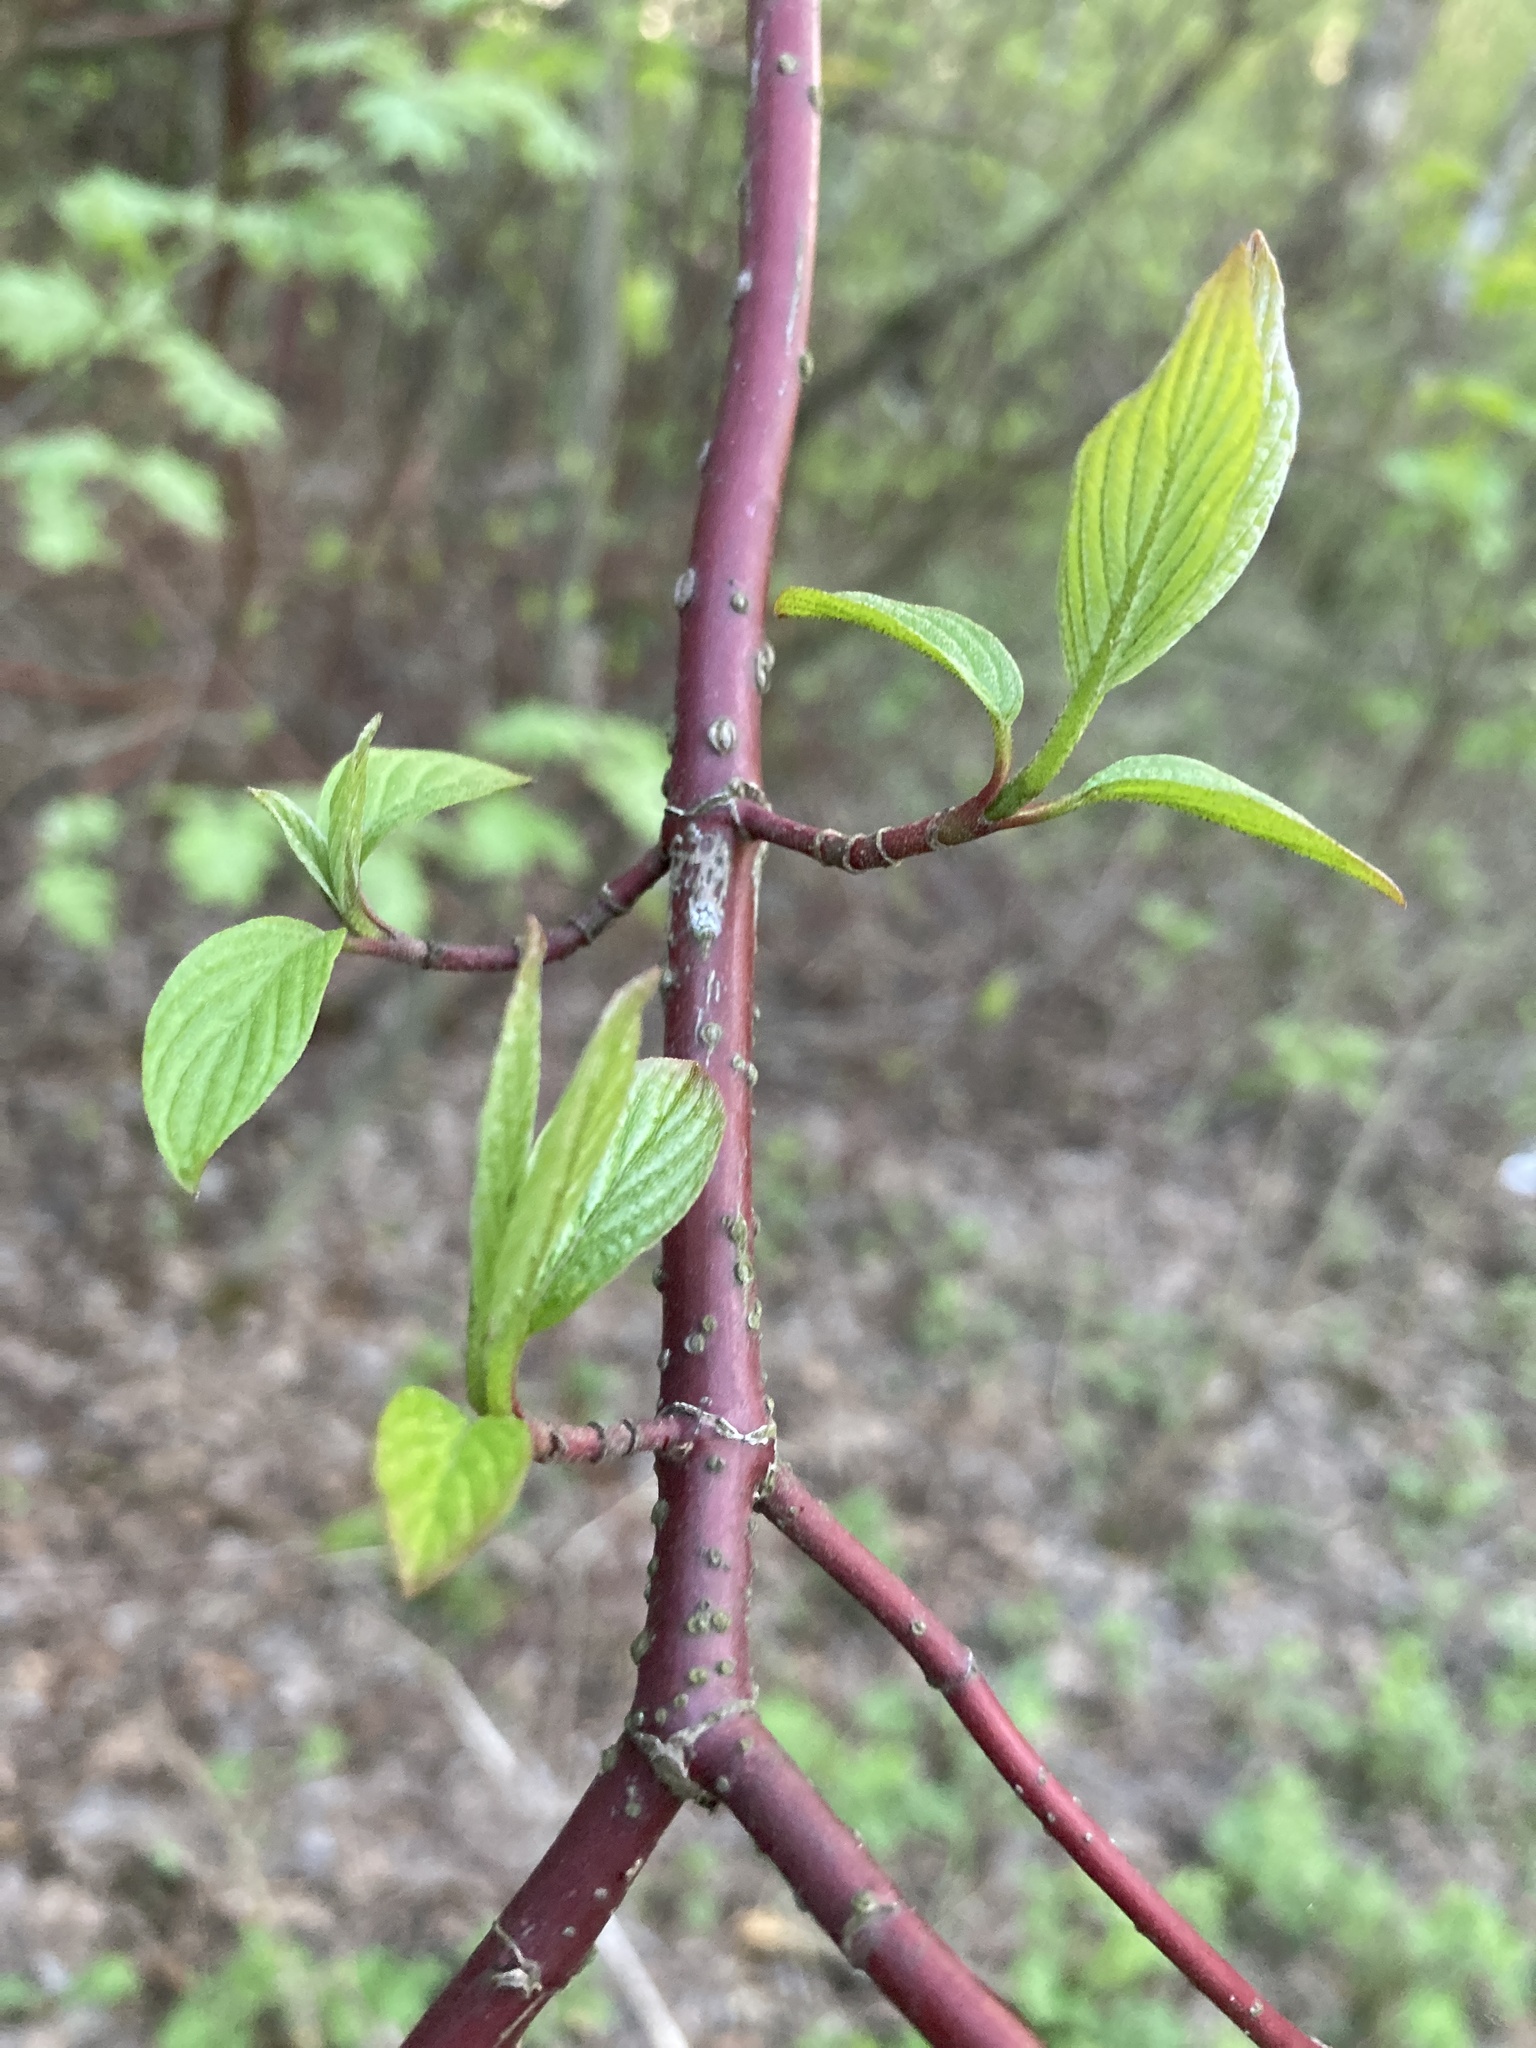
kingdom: Plantae
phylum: Tracheophyta
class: Magnoliopsida
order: Cornales
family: Cornaceae
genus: Cornus
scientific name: Cornus sericea
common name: Red-osier dogwood
